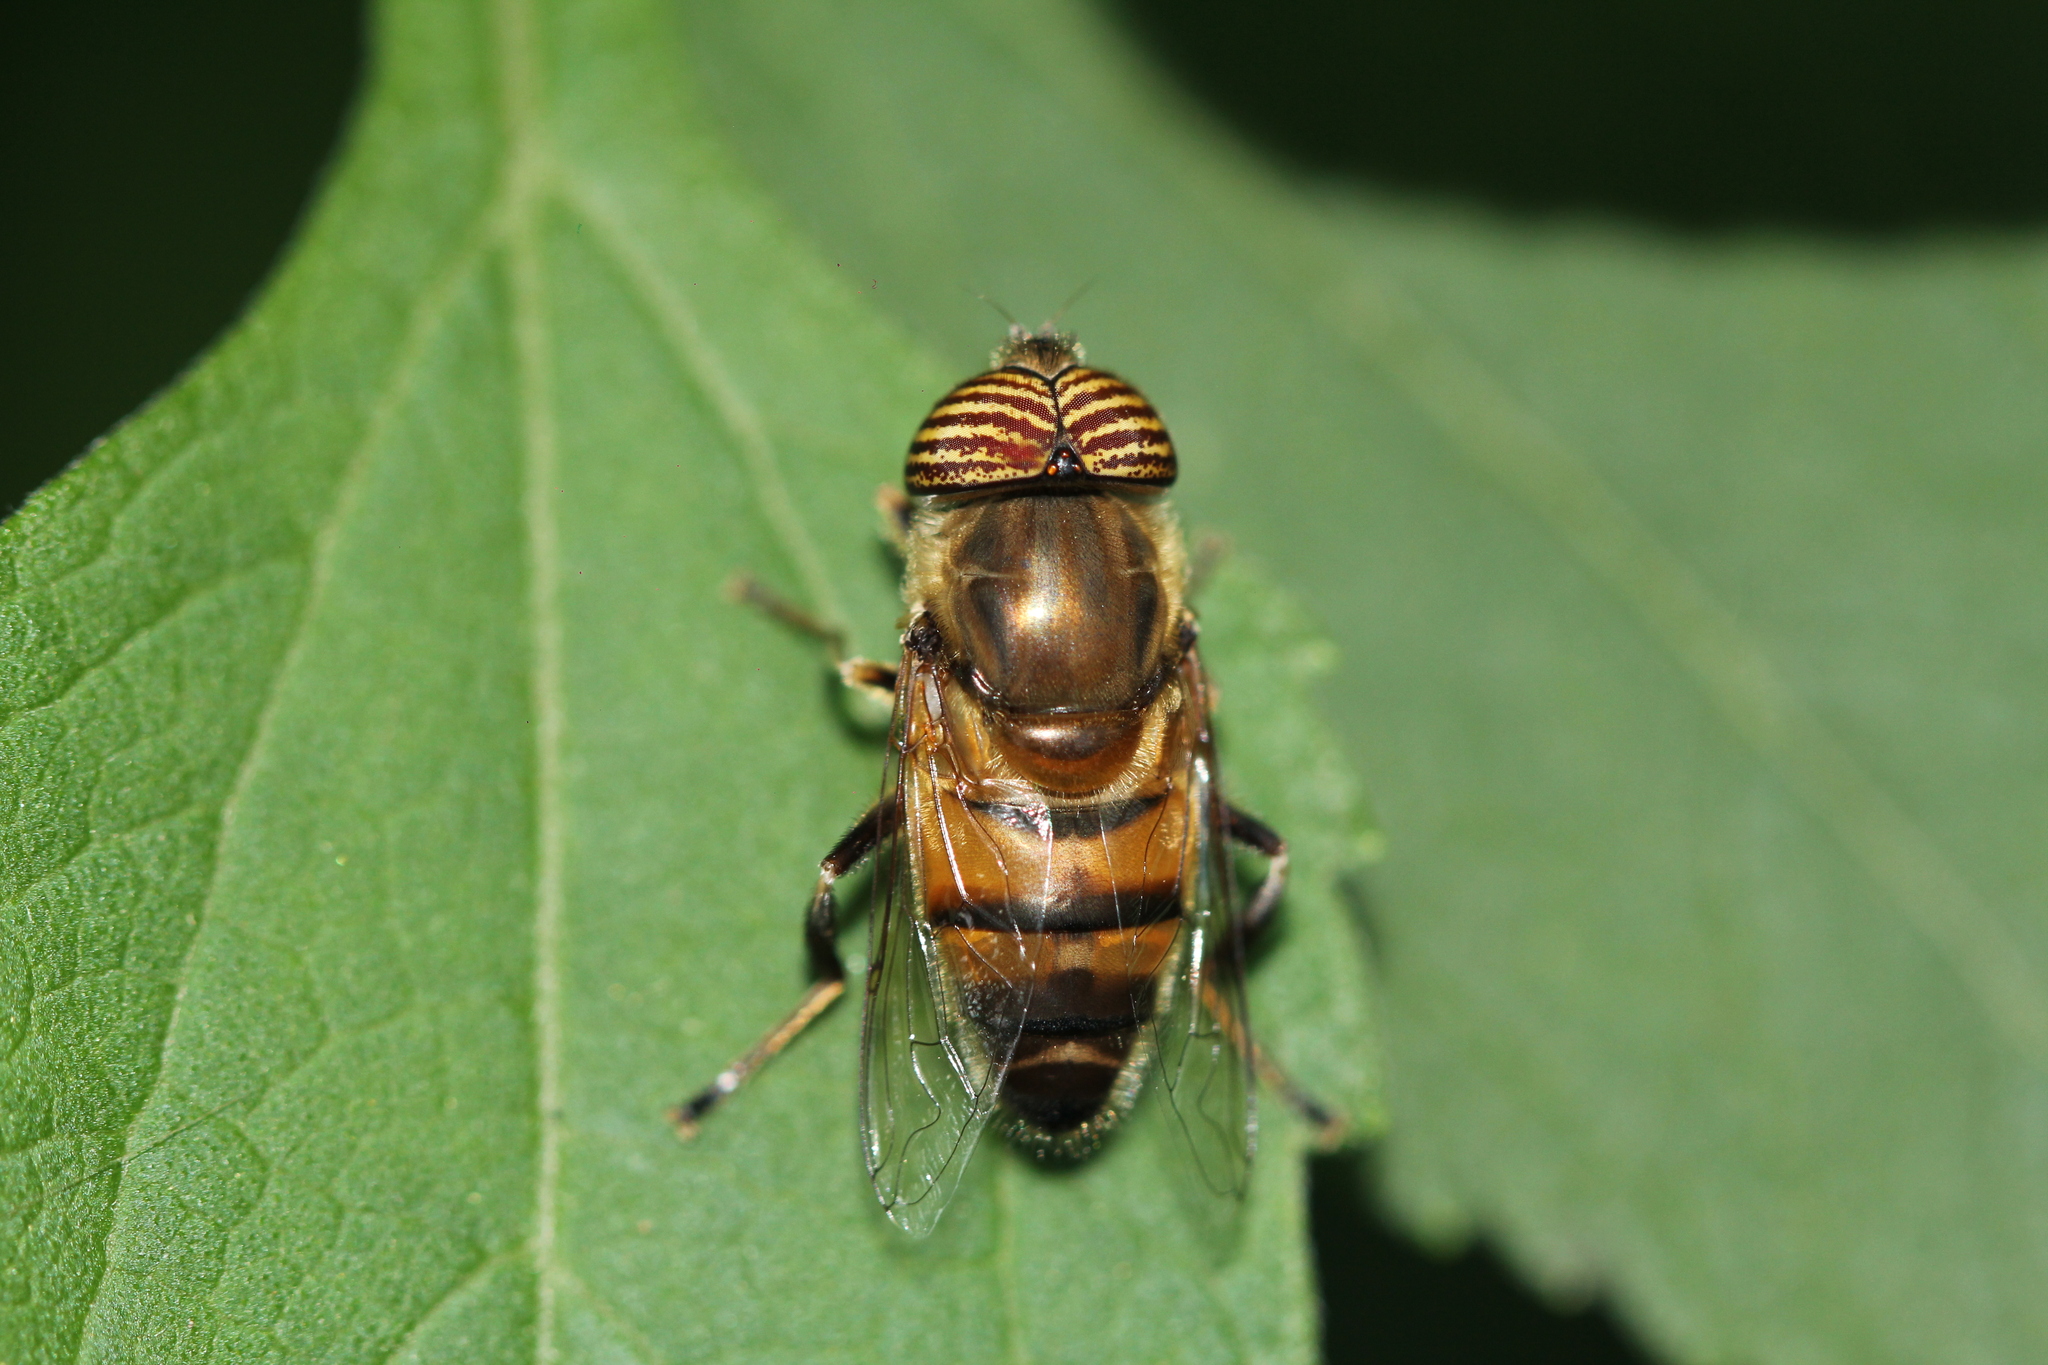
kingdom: Animalia
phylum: Arthropoda
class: Insecta
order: Diptera
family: Syrphidae
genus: Eristalinus
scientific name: Eristalinus taeniops
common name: Syrphid fly
